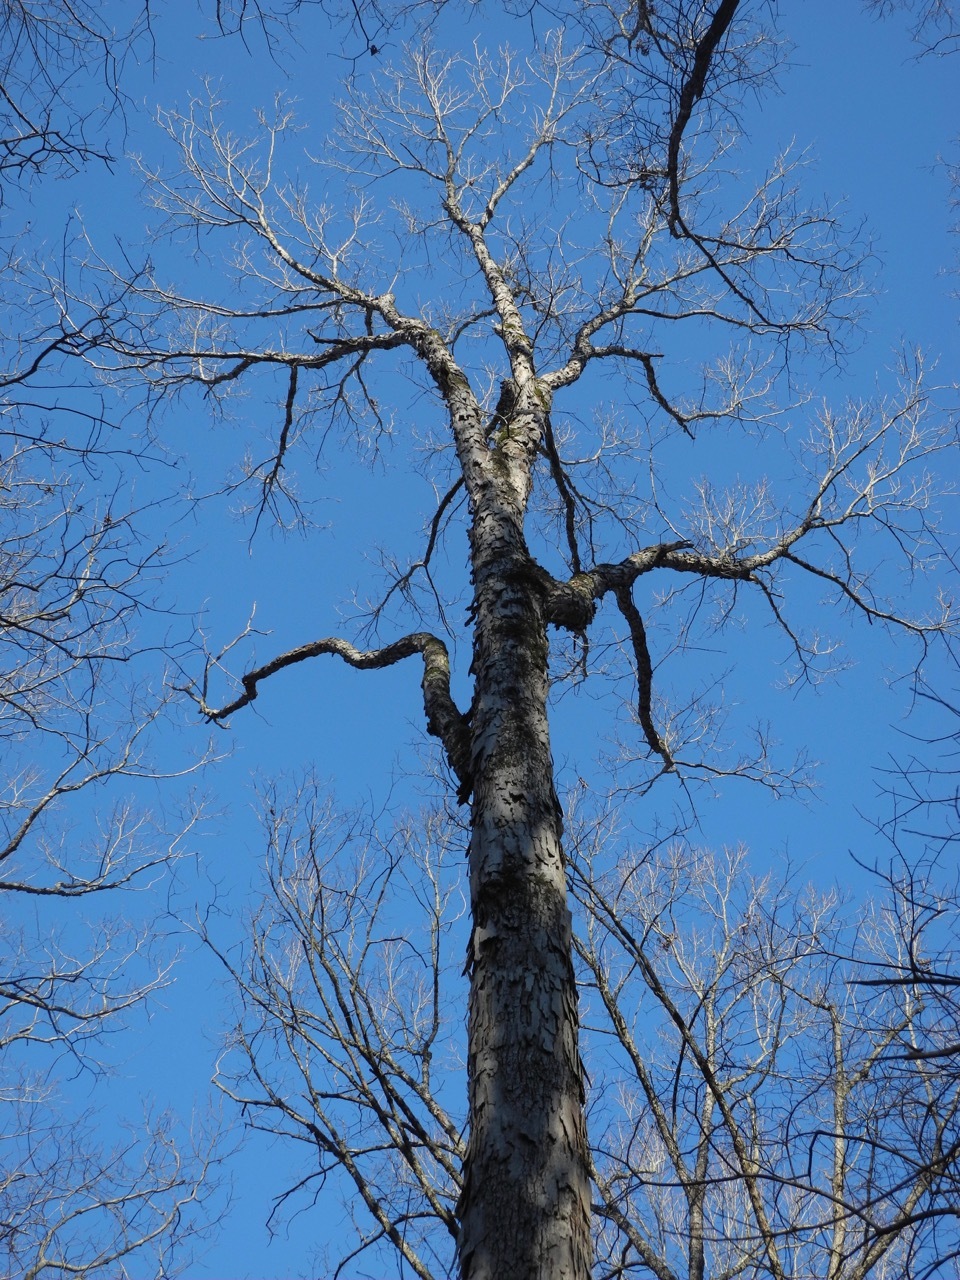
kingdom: Plantae
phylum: Tracheophyta
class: Magnoliopsida
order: Fagales
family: Juglandaceae
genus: Carya
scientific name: Carya ovata
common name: Shagbark hickory
